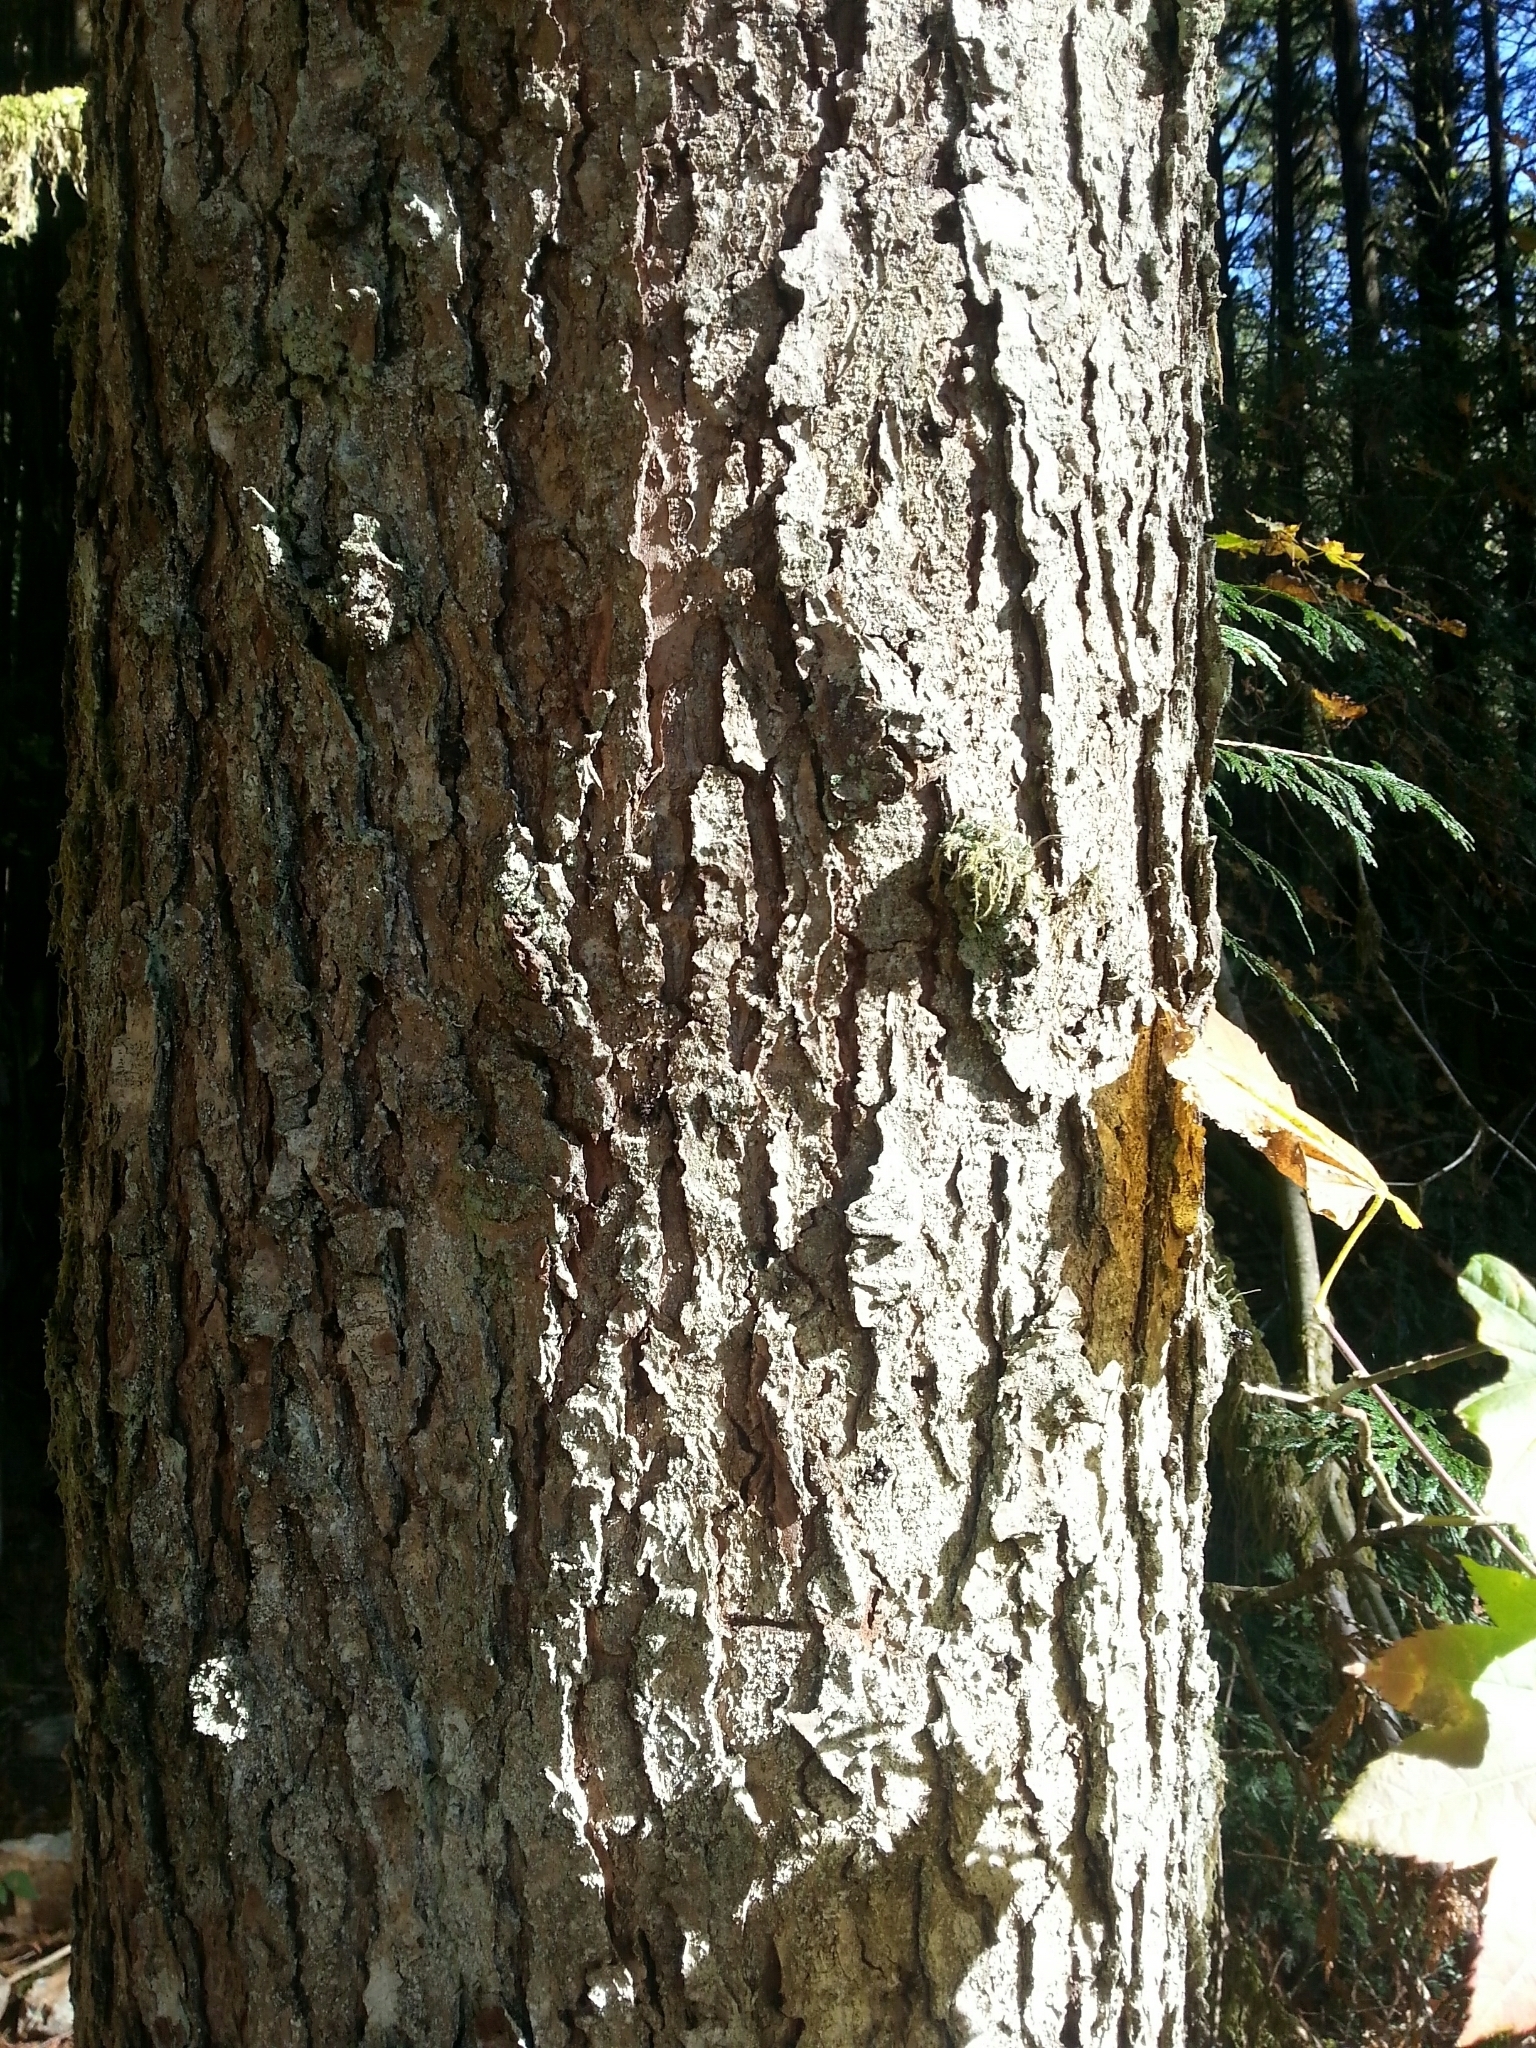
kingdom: Plantae
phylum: Tracheophyta
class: Pinopsida
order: Pinales
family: Pinaceae
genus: Tsuga
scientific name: Tsuga heterophylla
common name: Western hemlock
